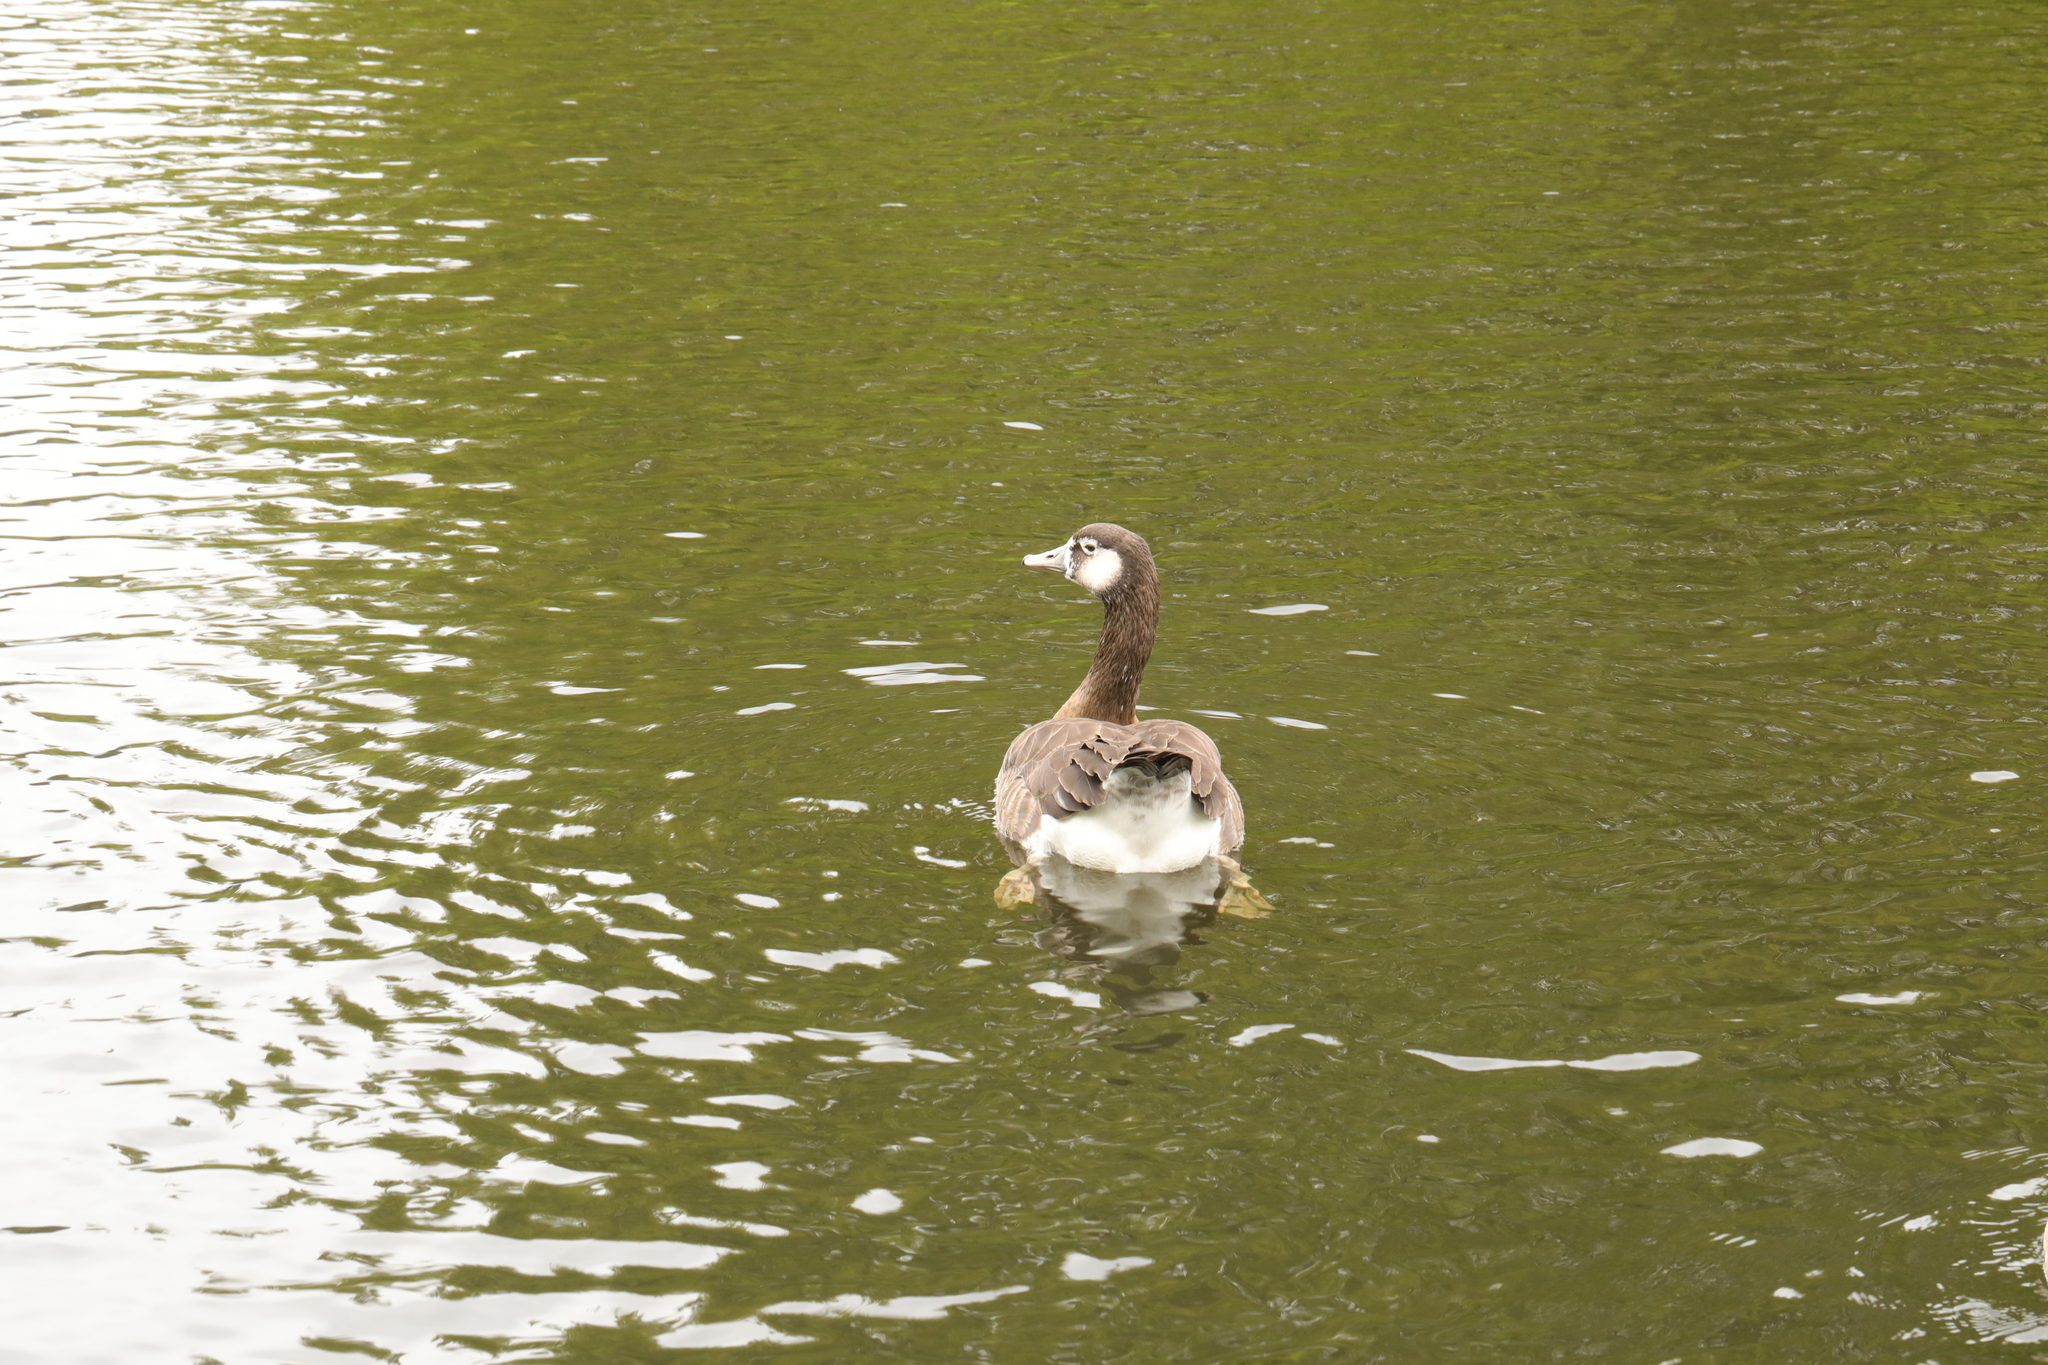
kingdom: Animalia
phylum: Chordata
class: Aves
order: Anseriformes
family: Anatidae
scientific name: Anatidae
